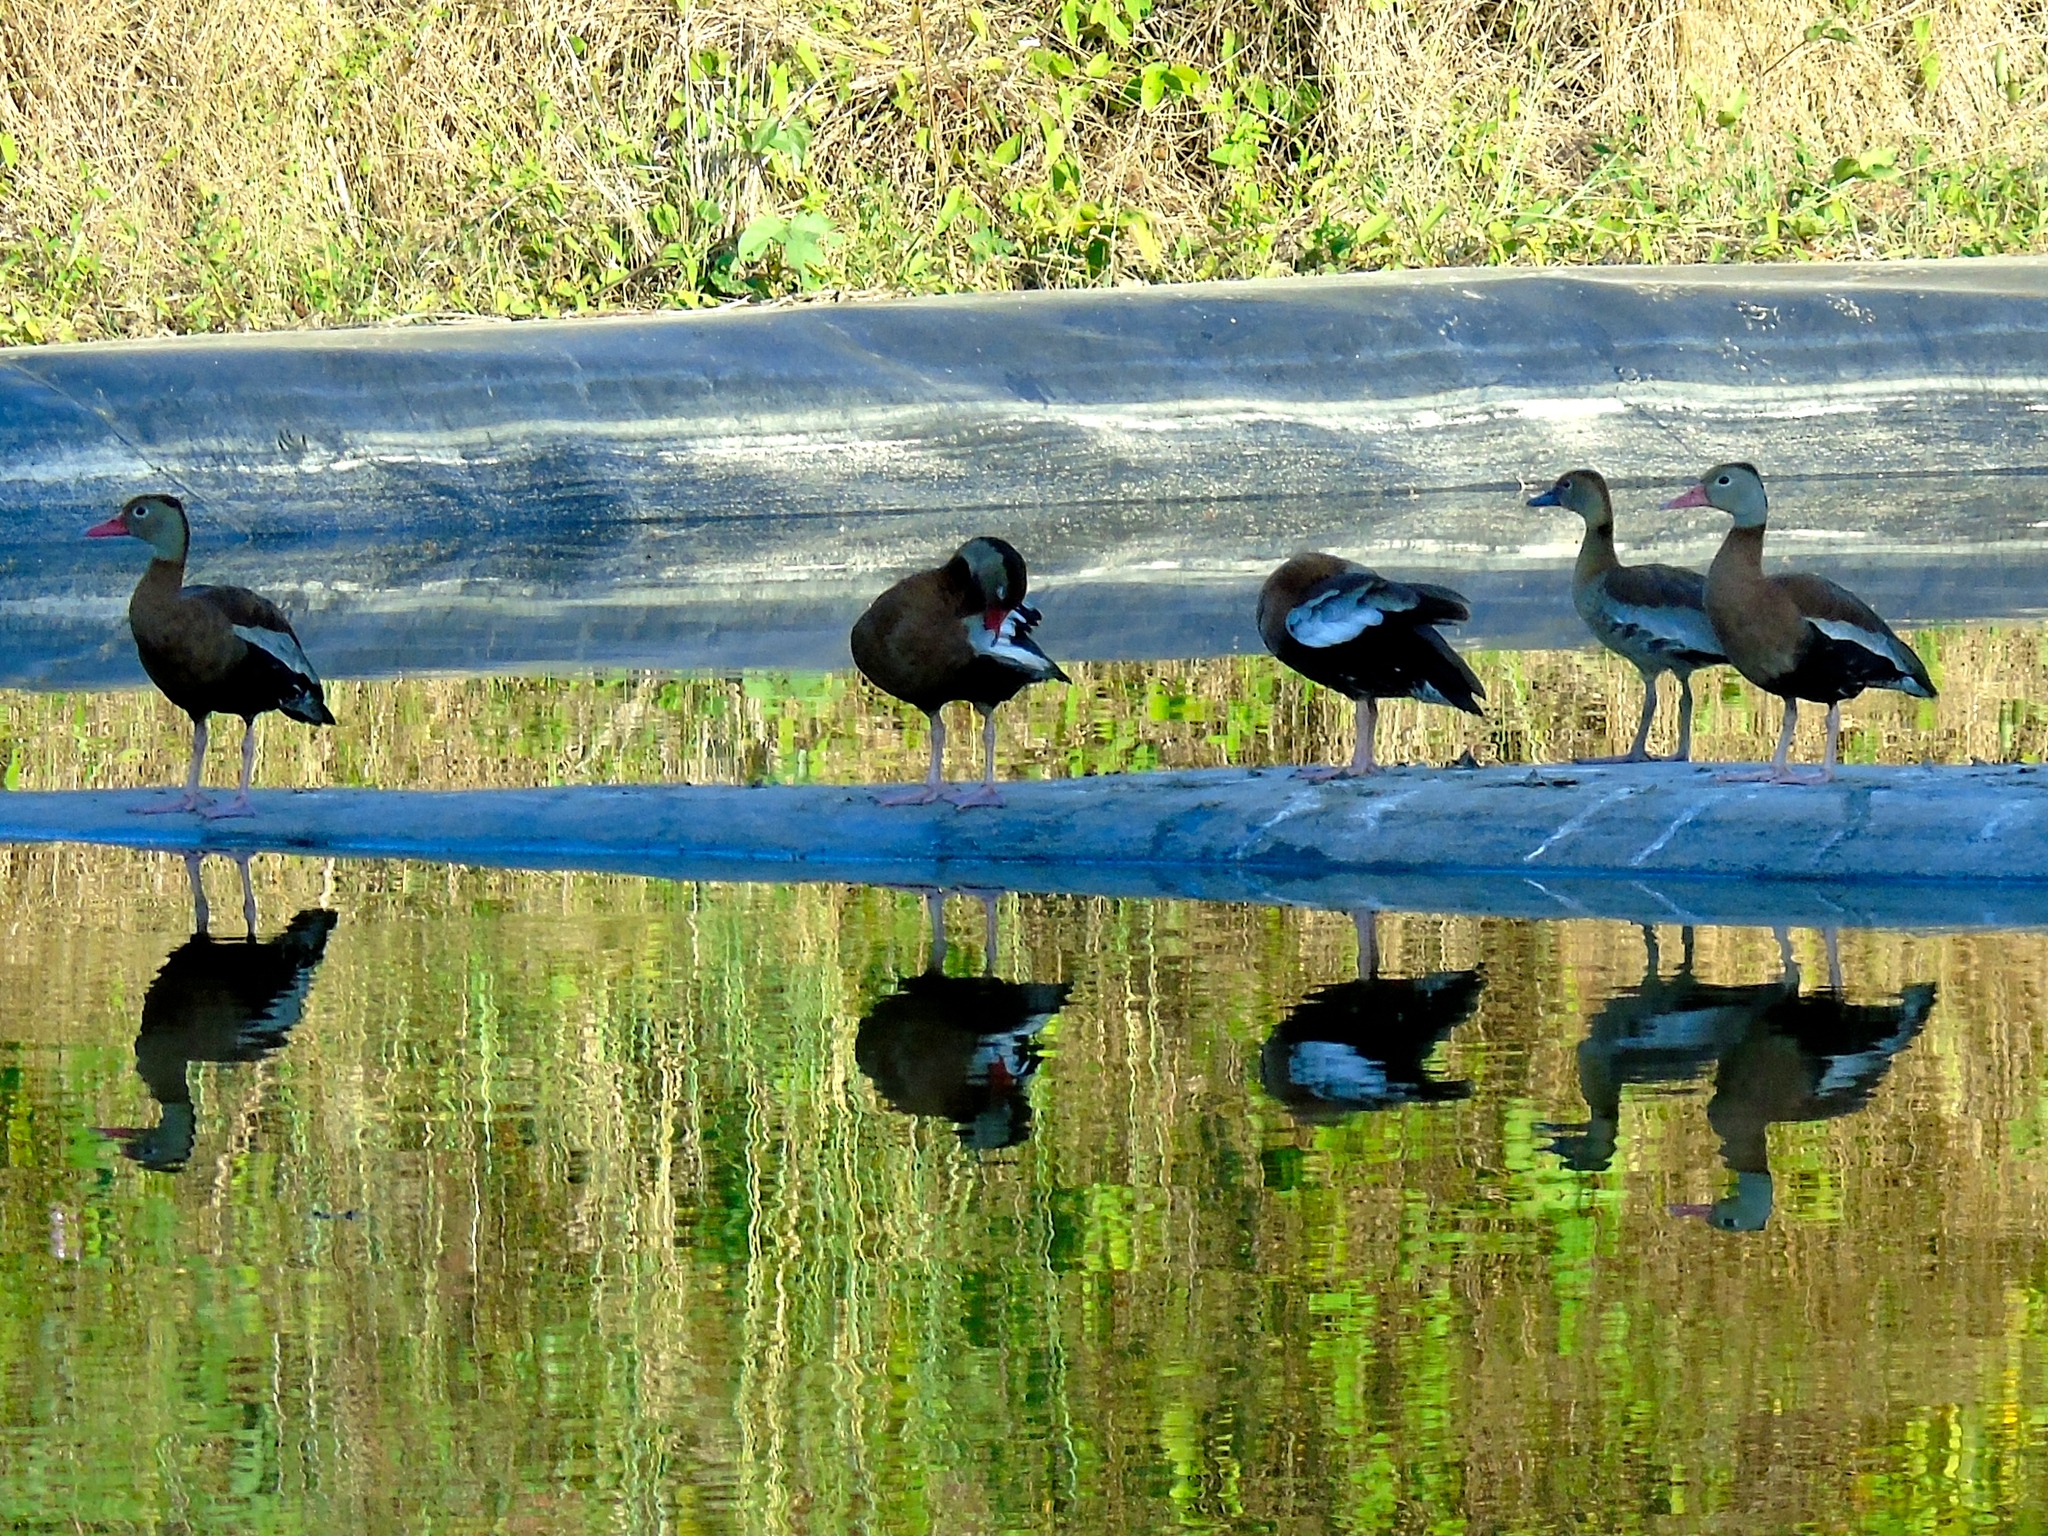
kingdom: Animalia
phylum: Chordata
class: Aves
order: Anseriformes
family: Anatidae
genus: Dendrocygna
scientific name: Dendrocygna autumnalis
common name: Black-bellied whistling duck
